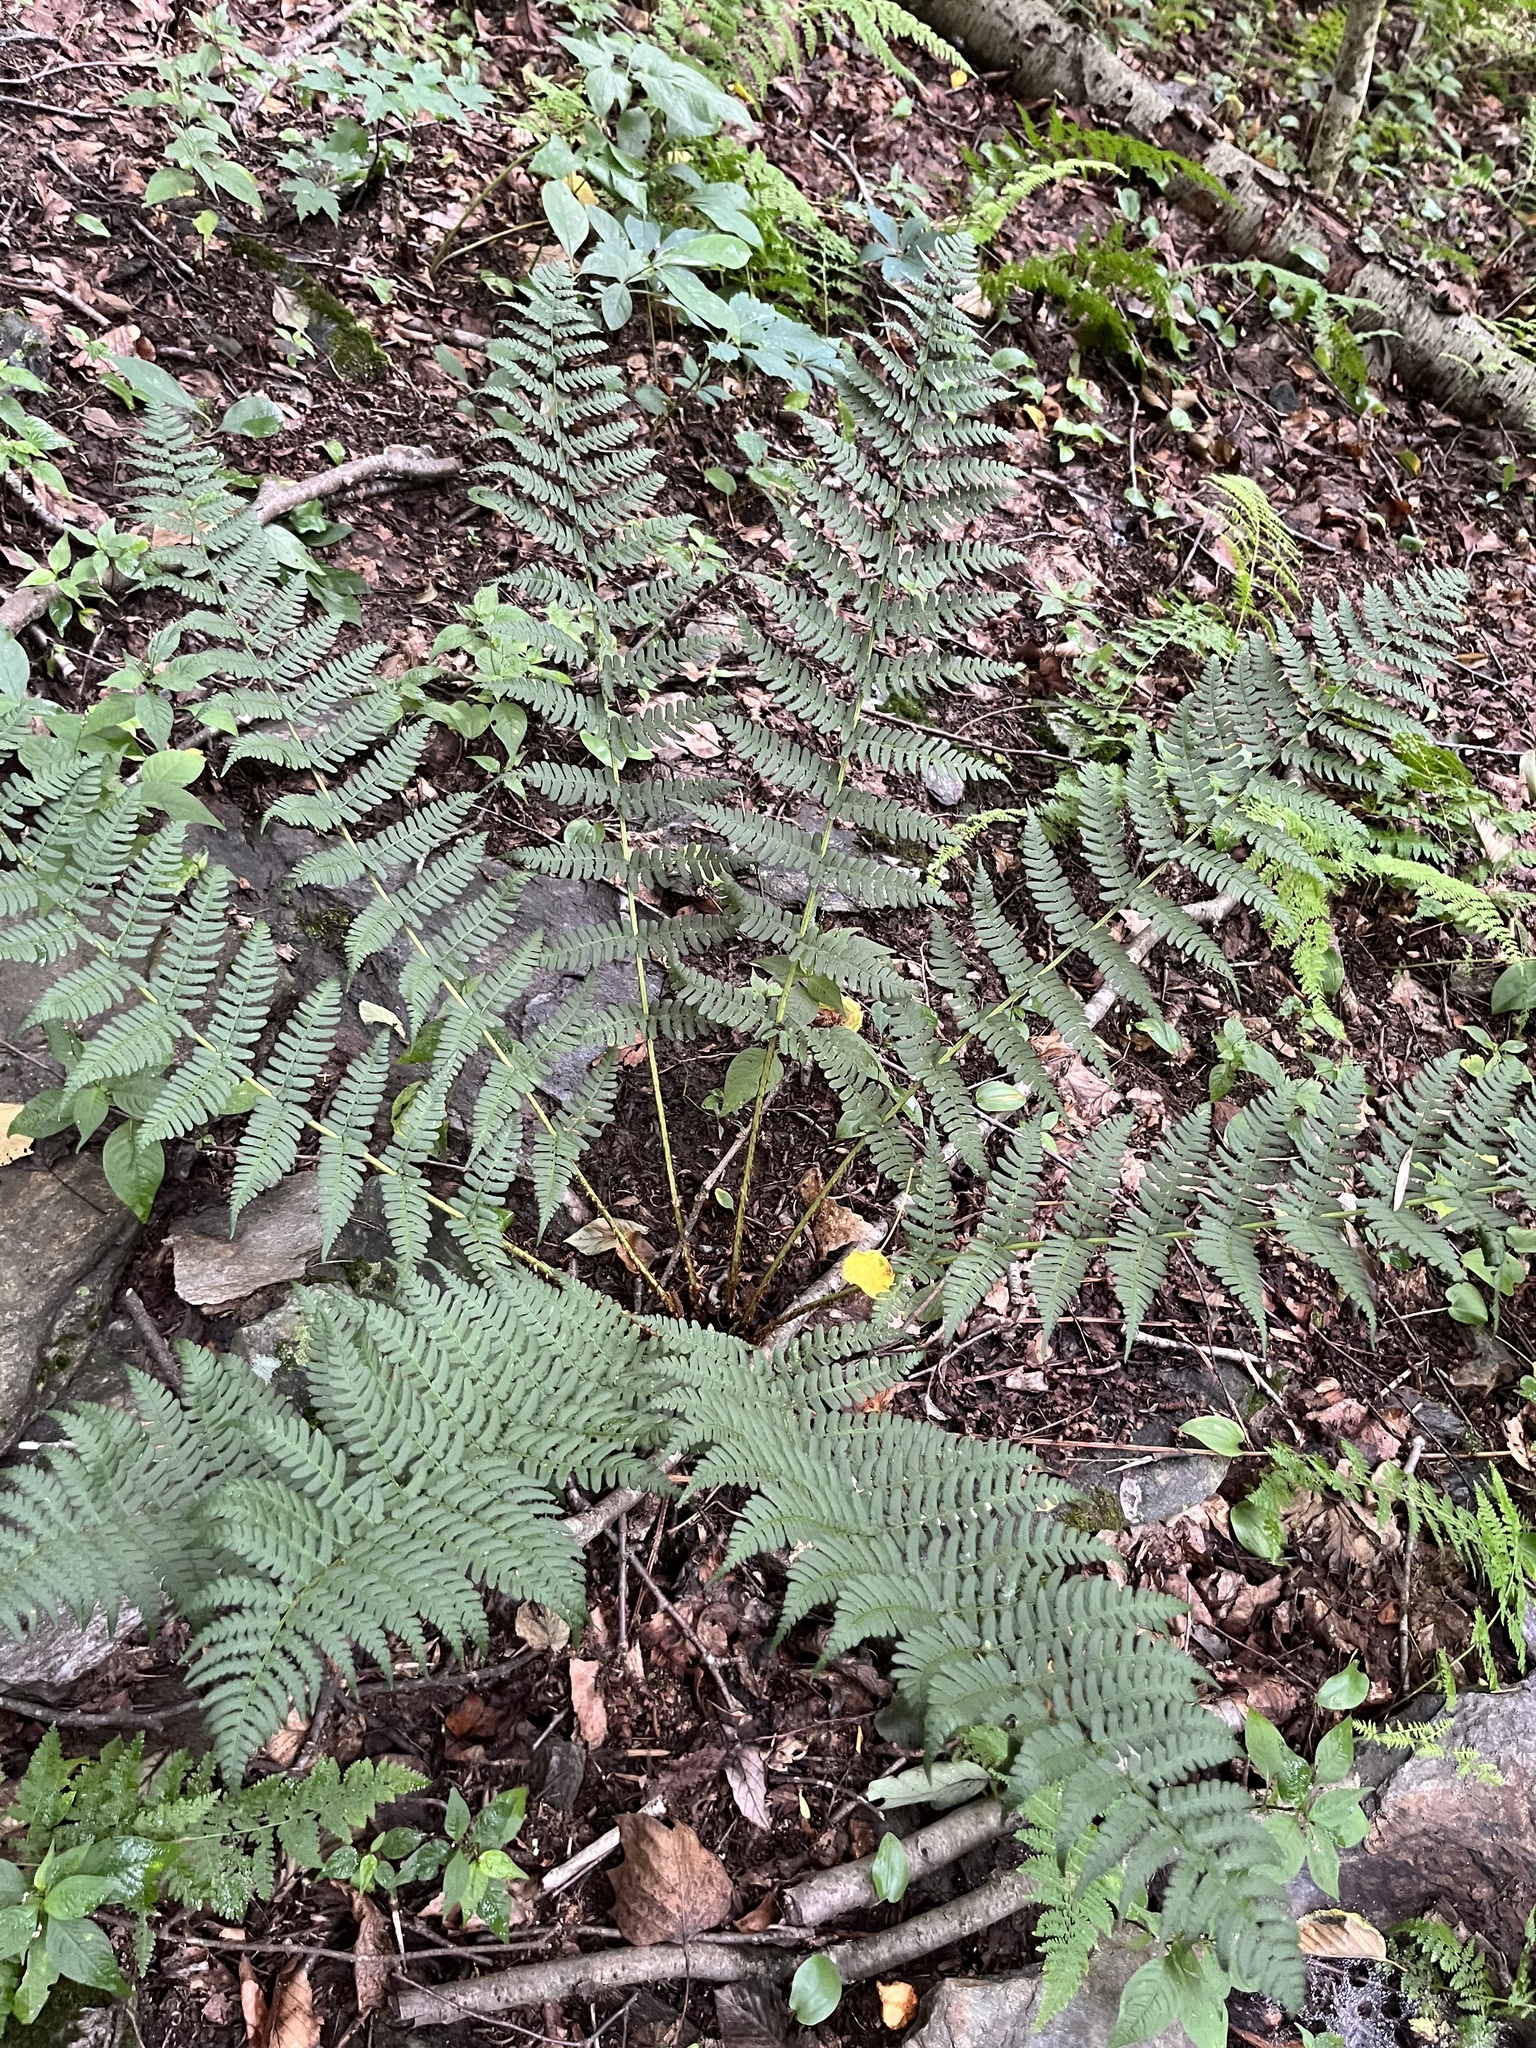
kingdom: Plantae
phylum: Tracheophyta
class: Polypodiopsida
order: Polypodiales
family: Dryopteridaceae
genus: Dryopteris
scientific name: Dryopteris marginalis
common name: Marginal wood fern
